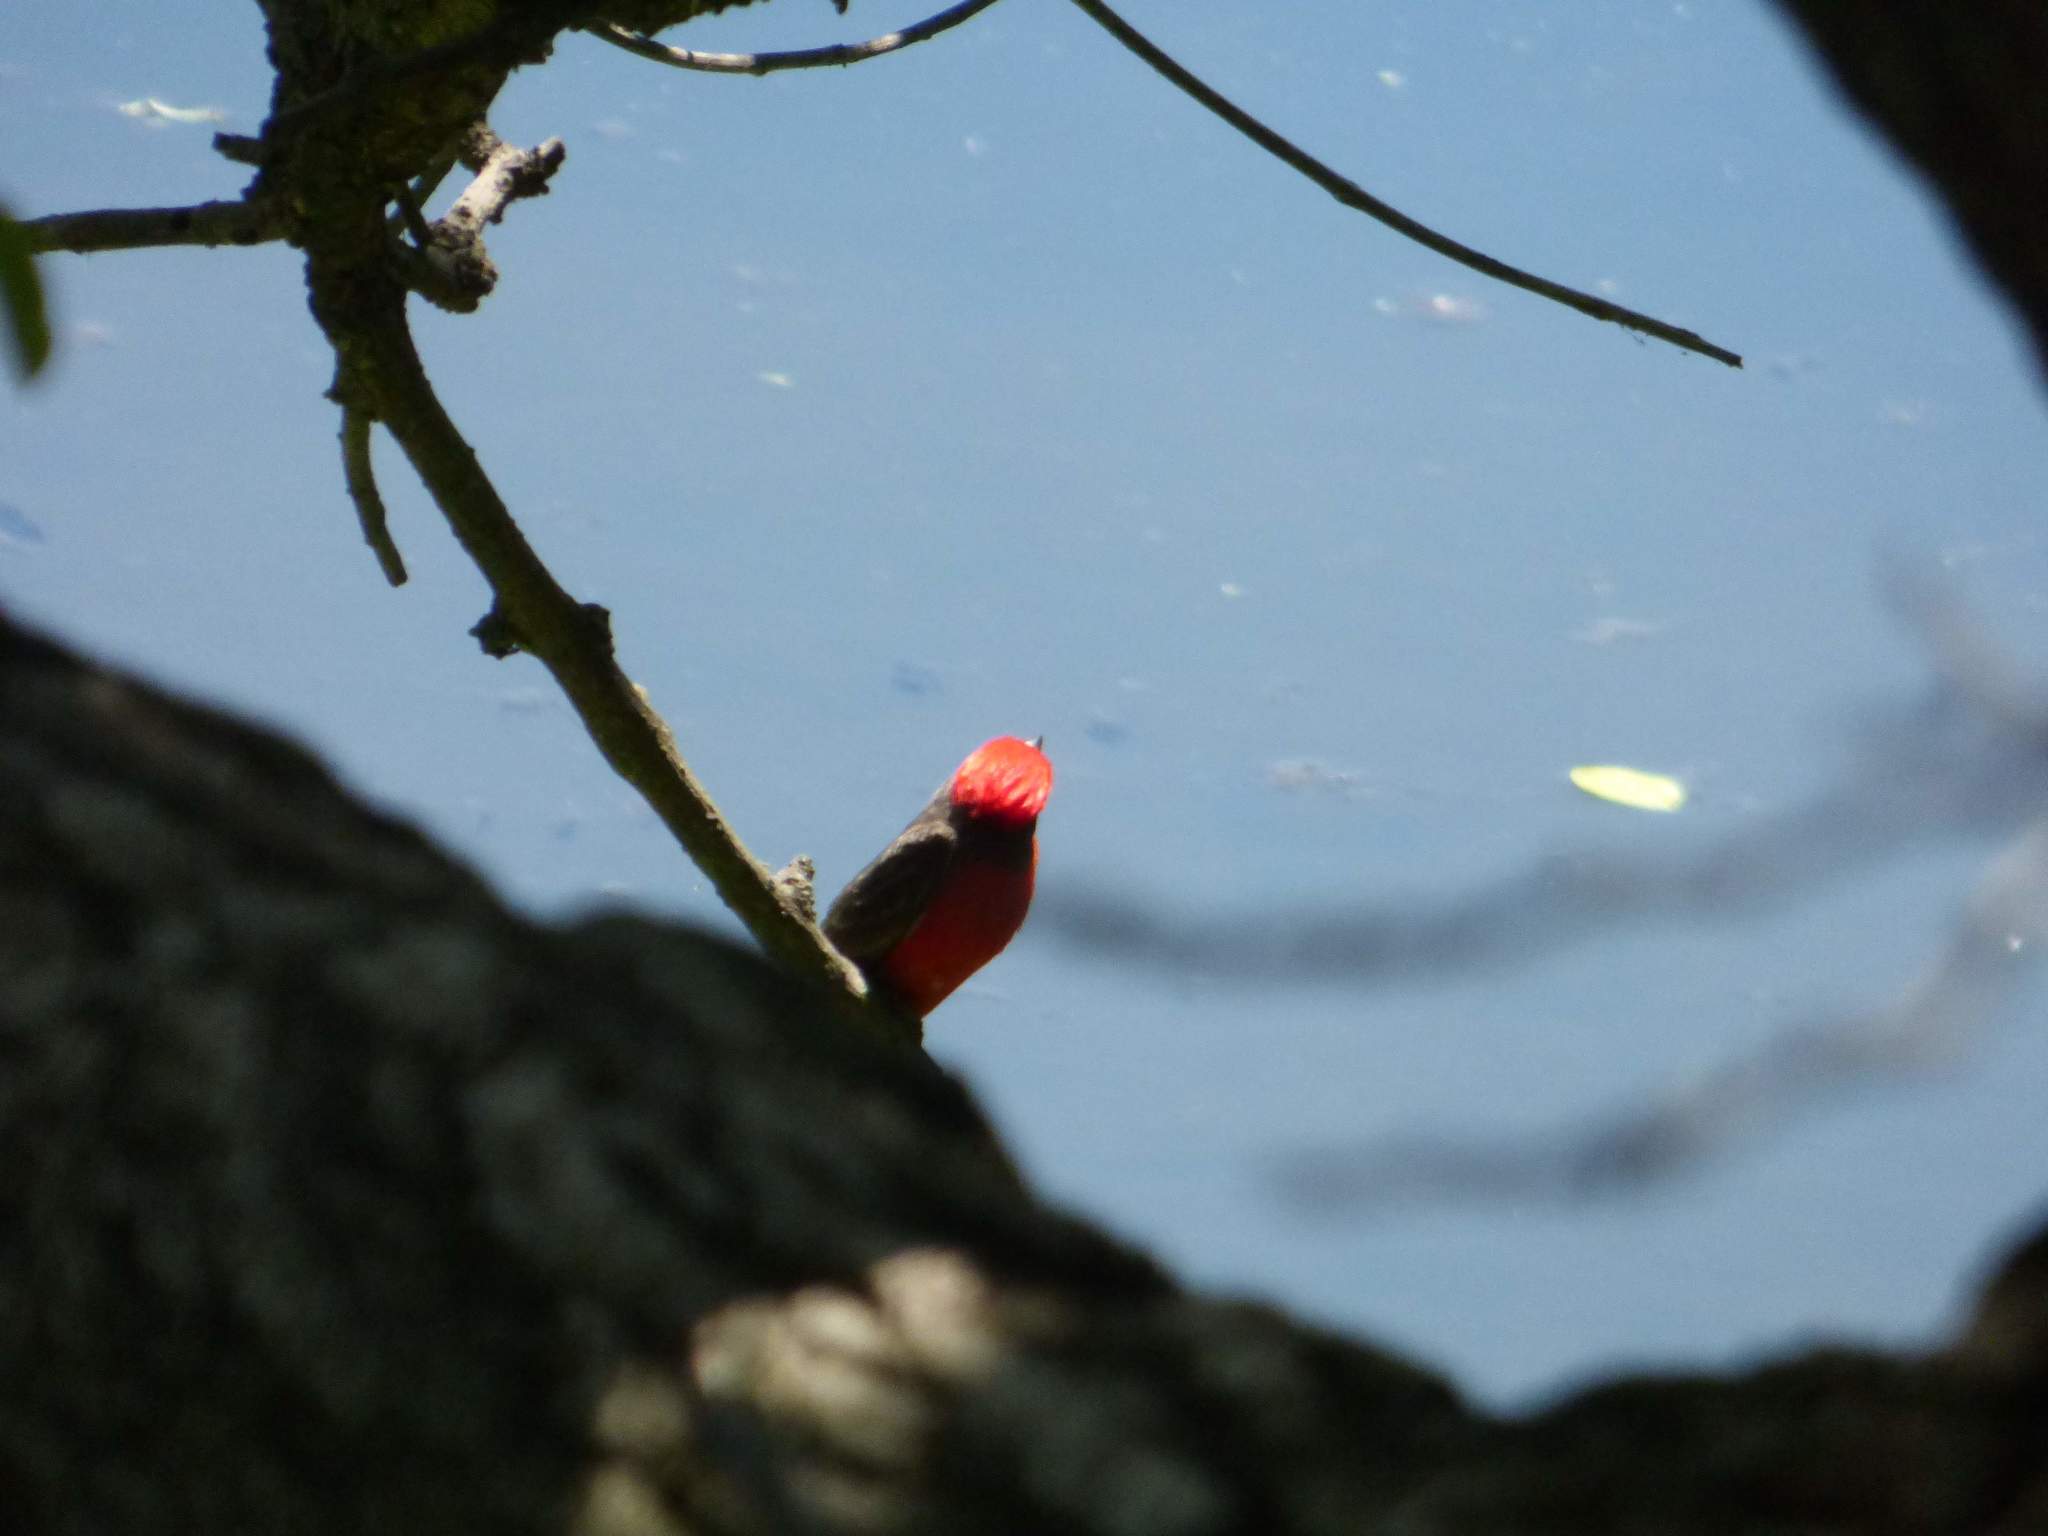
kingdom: Animalia
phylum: Chordata
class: Aves
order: Passeriformes
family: Tyrannidae
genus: Pyrocephalus
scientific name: Pyrocephalus rubinus
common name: Vermilion flycatcher
